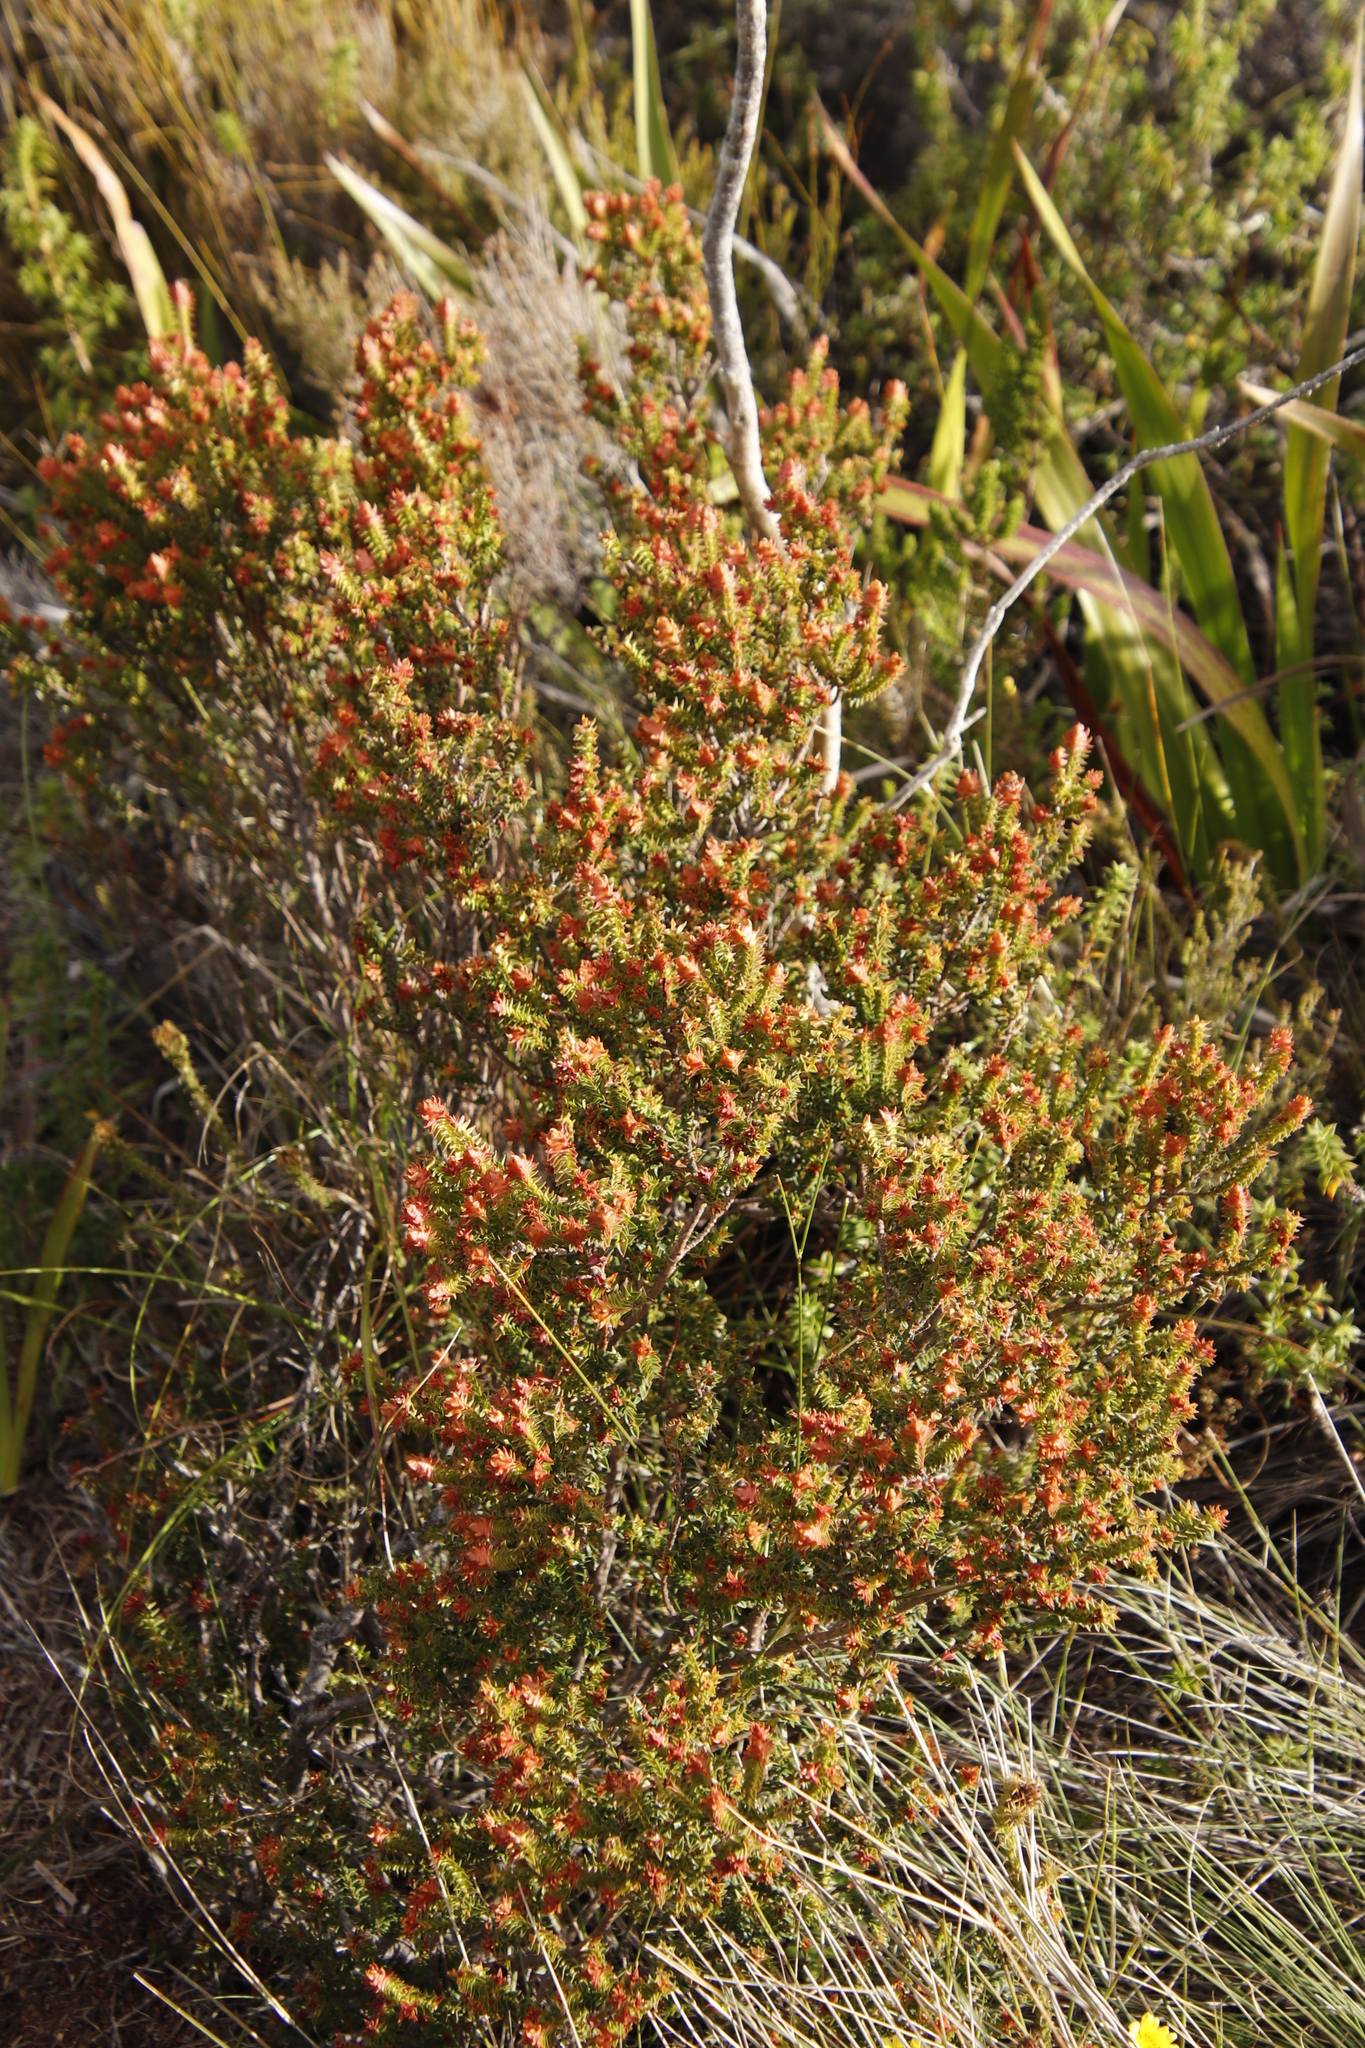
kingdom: Plantae
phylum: Tracheophyta
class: Magnoliopsida
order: Myrtales
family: Penaeaceae
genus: Penaea
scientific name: Penaea mucronata
